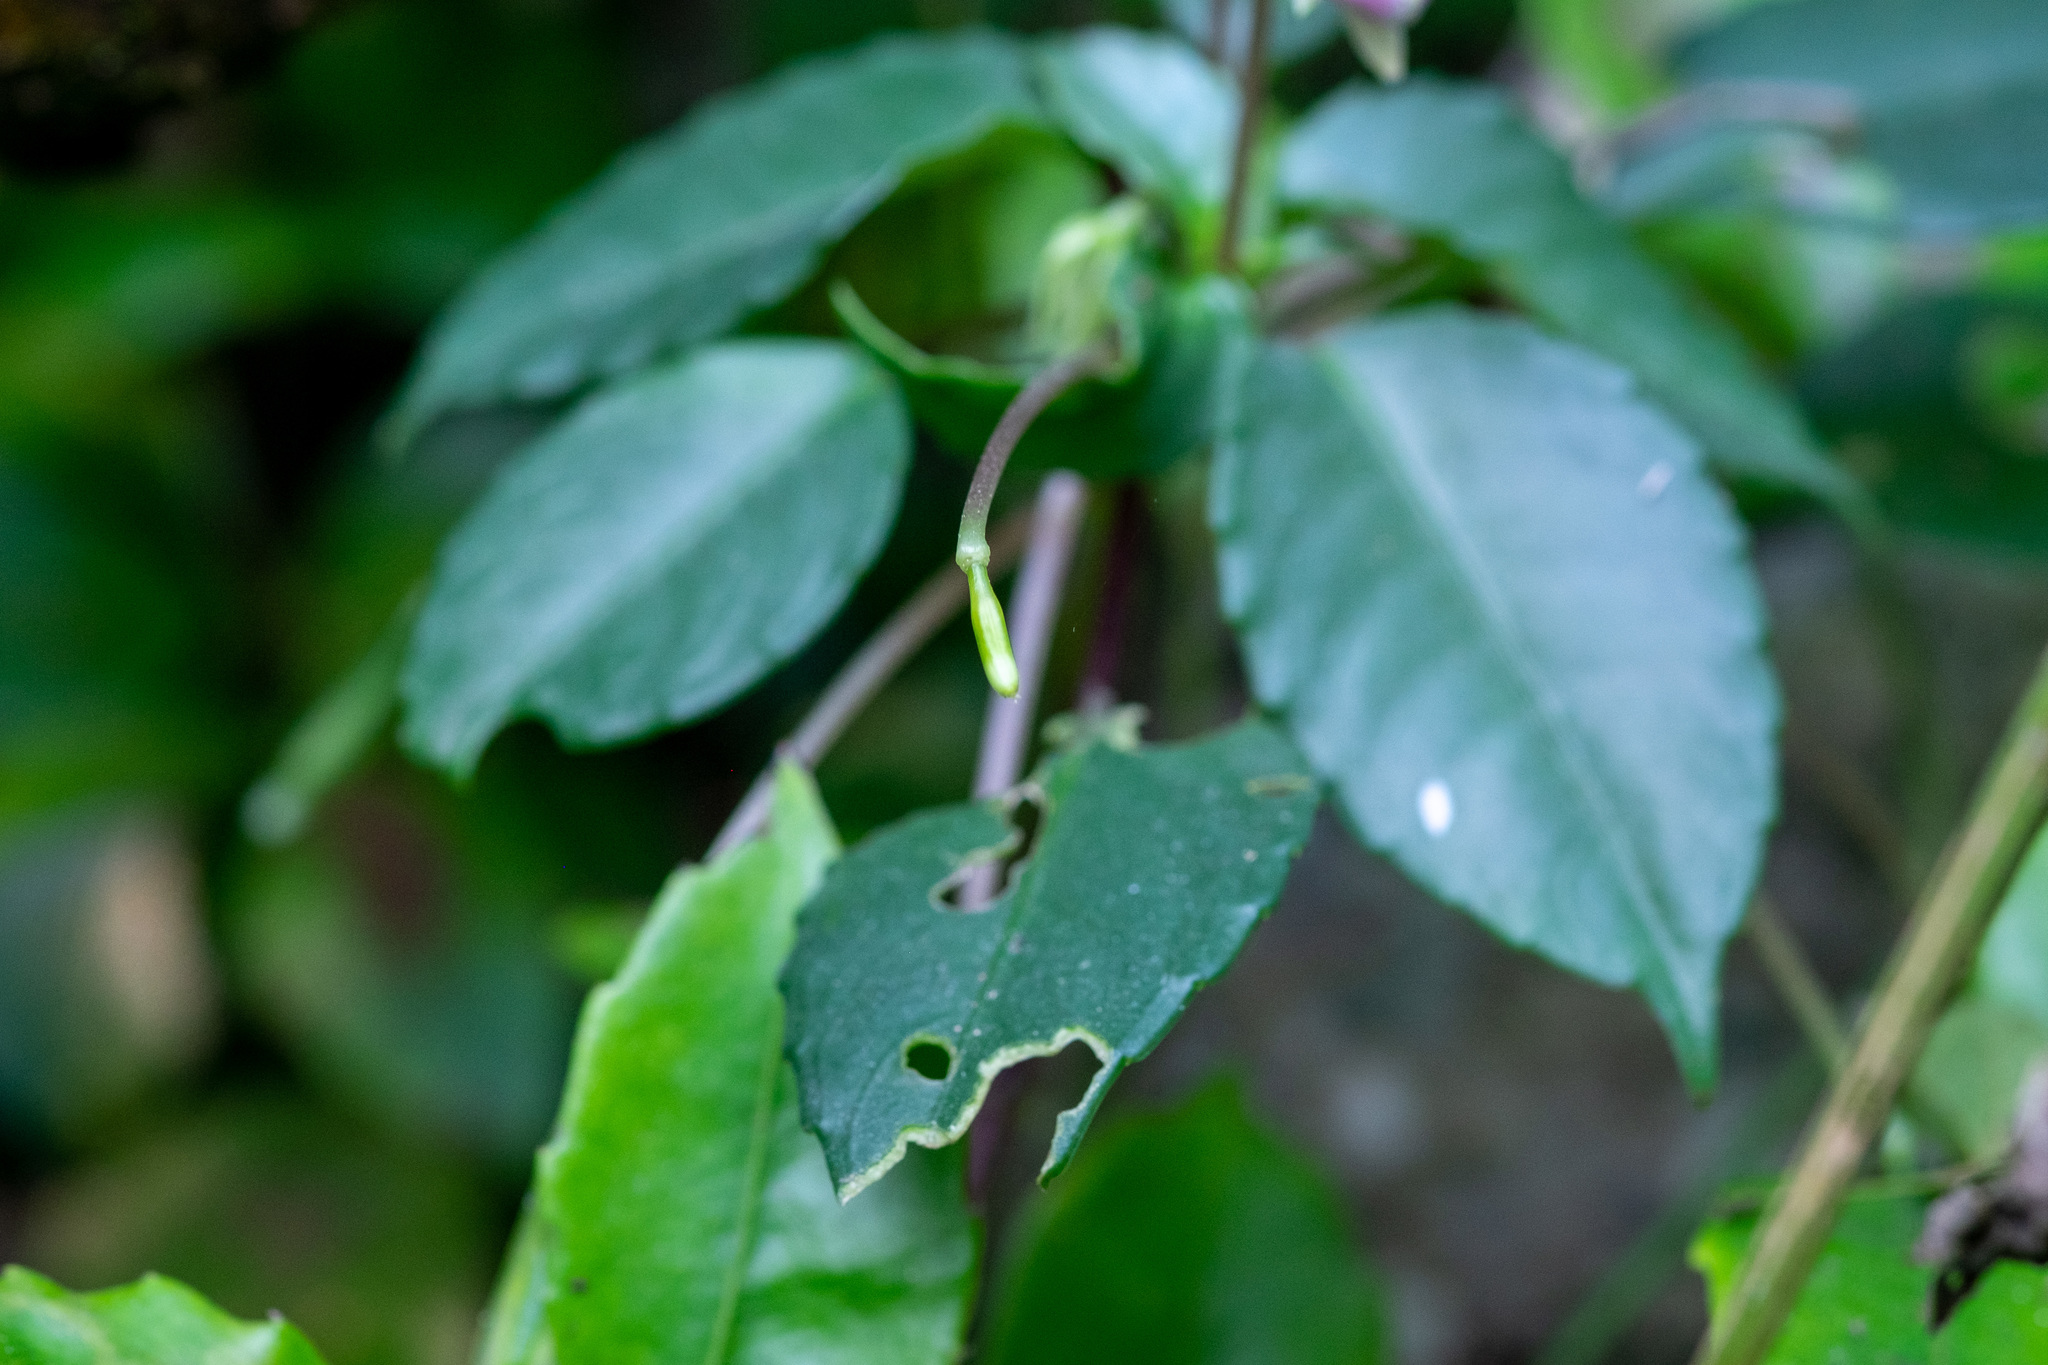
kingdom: Plantae
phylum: Tracheophyta
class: Magnoliopsida
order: Ericales
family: Balsaminaceae
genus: Impatiens
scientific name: Impatiens bonii
